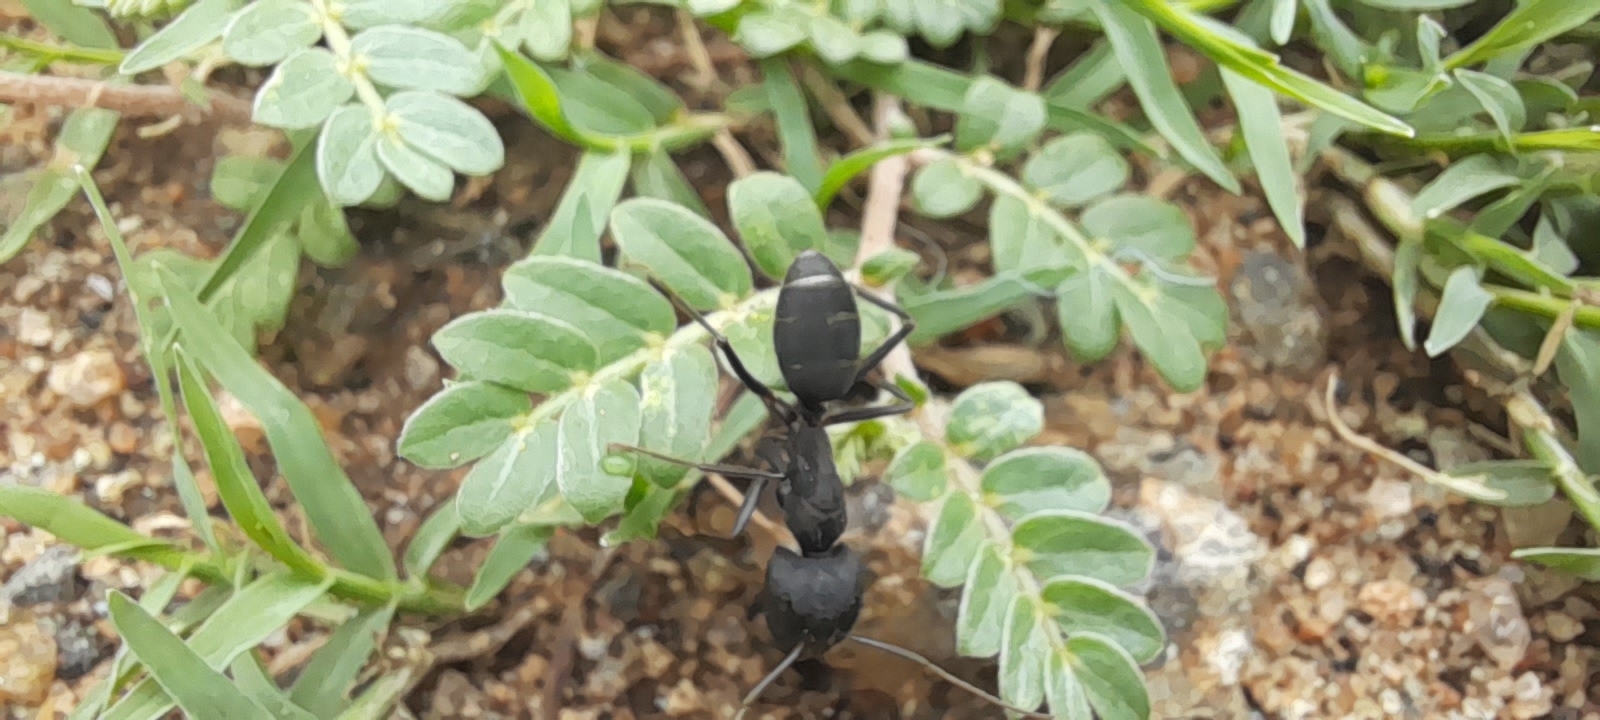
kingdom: Animalia
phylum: Arthropoda
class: Insecta
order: Hymenoptera
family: Formicidae
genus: Camponotus
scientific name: Camponotus compressus
